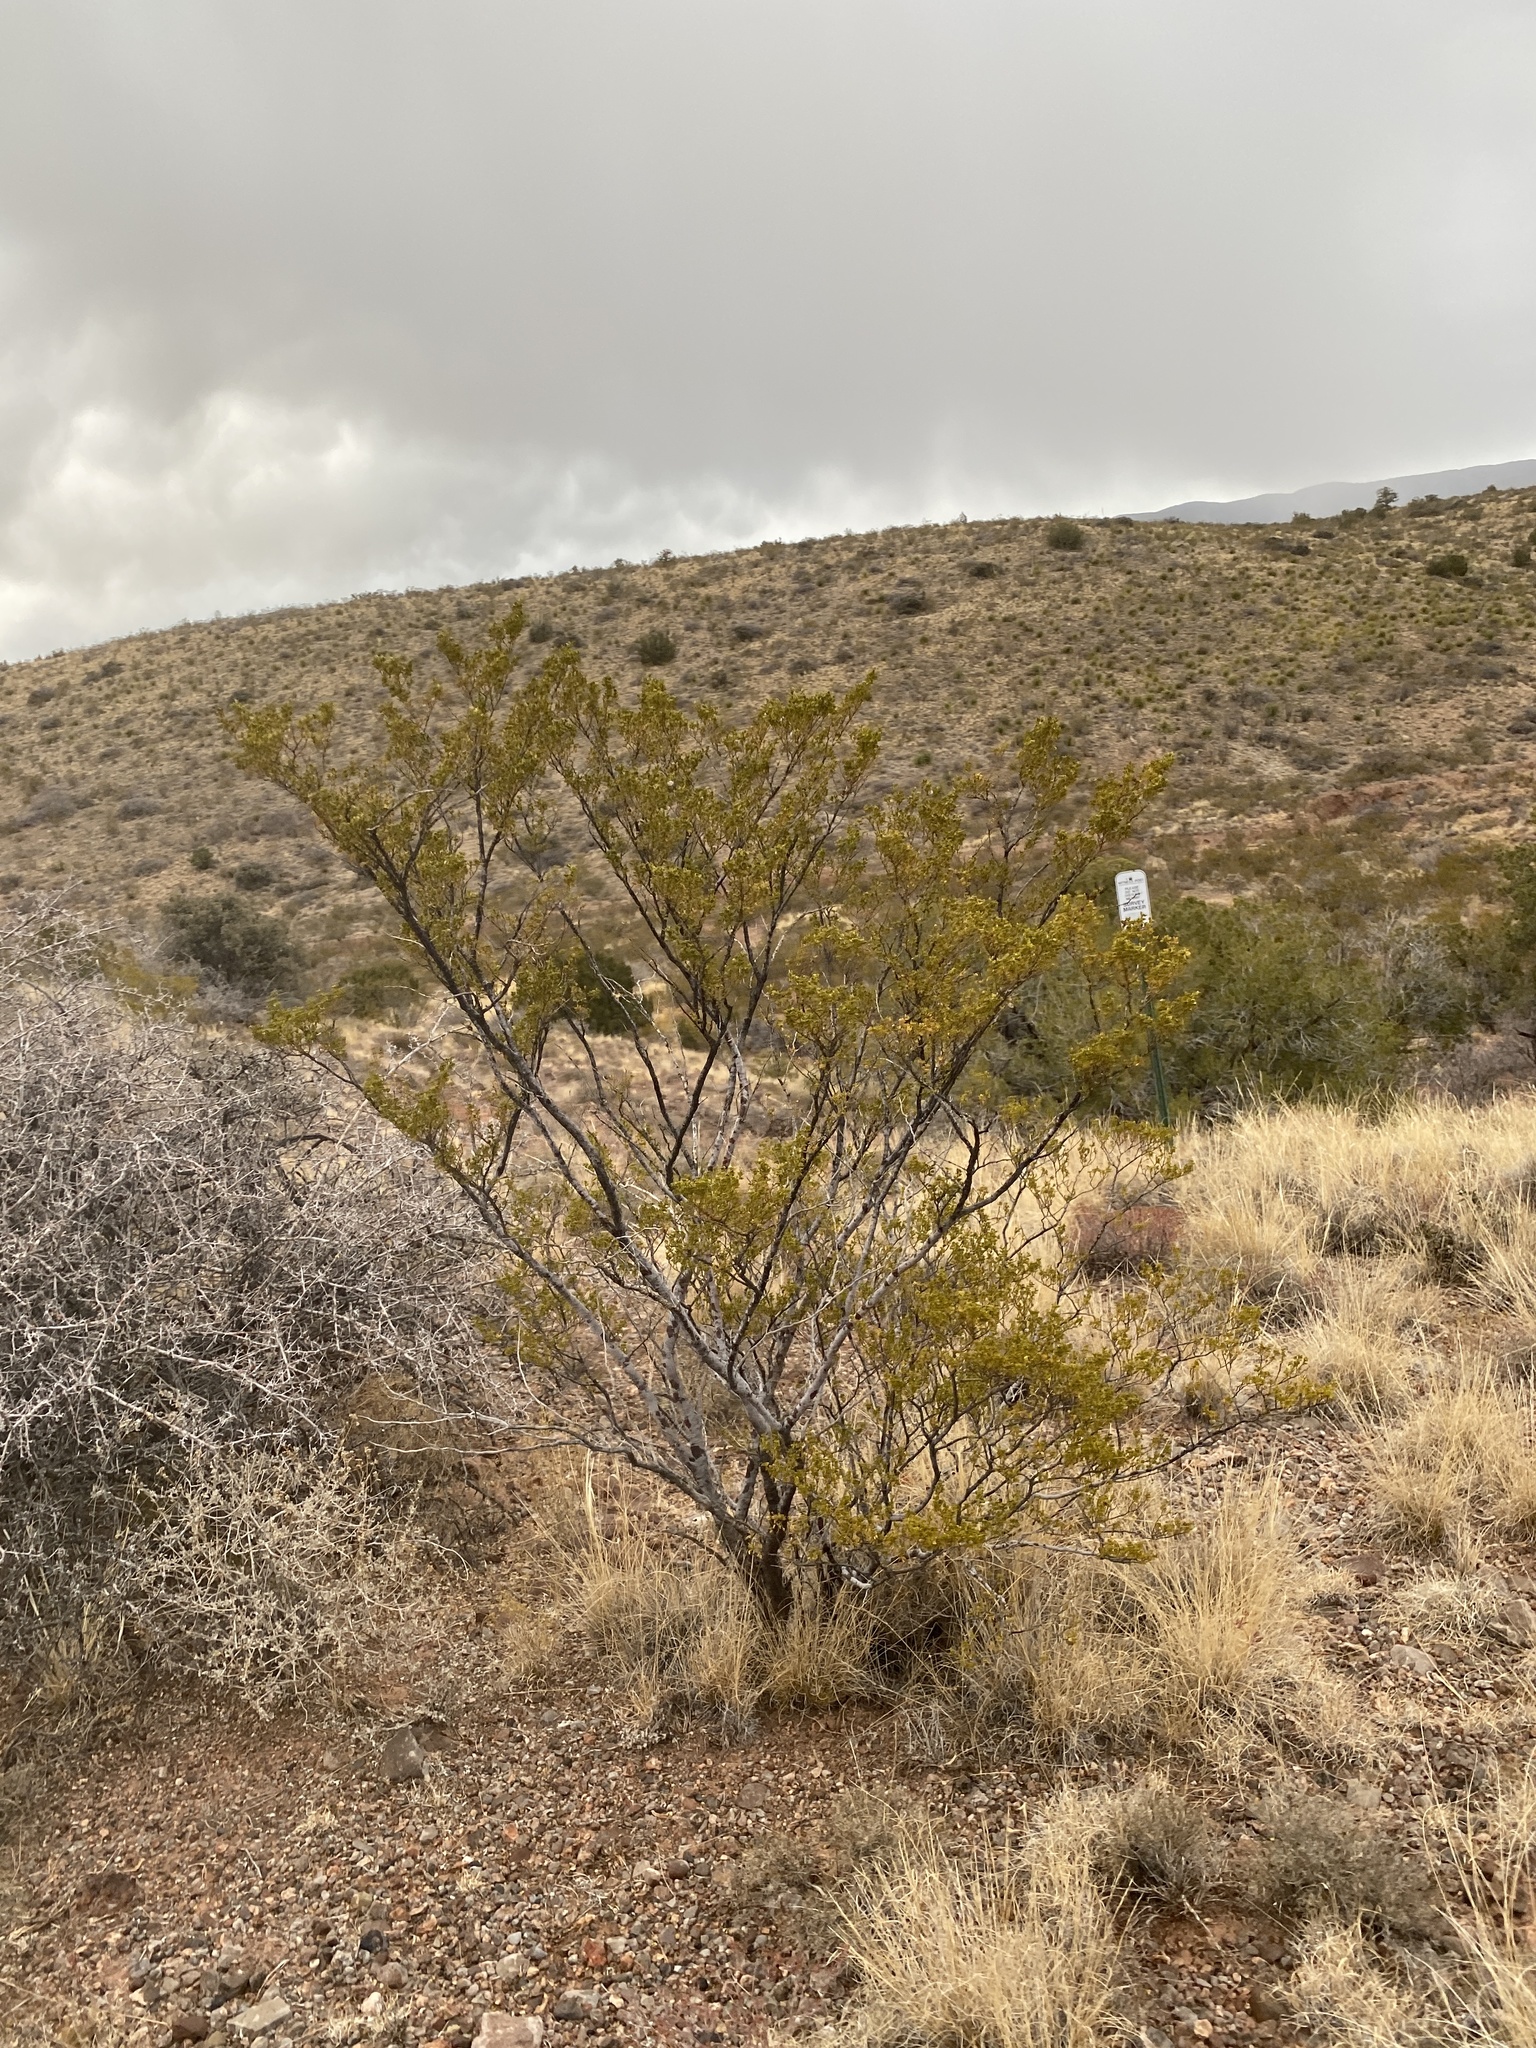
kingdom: Plantae
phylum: Tracheophyta
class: Magnoliopsida
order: Zygophyllales
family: Zygophyllaceae
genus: Larrea
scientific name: Larrea tridentata
